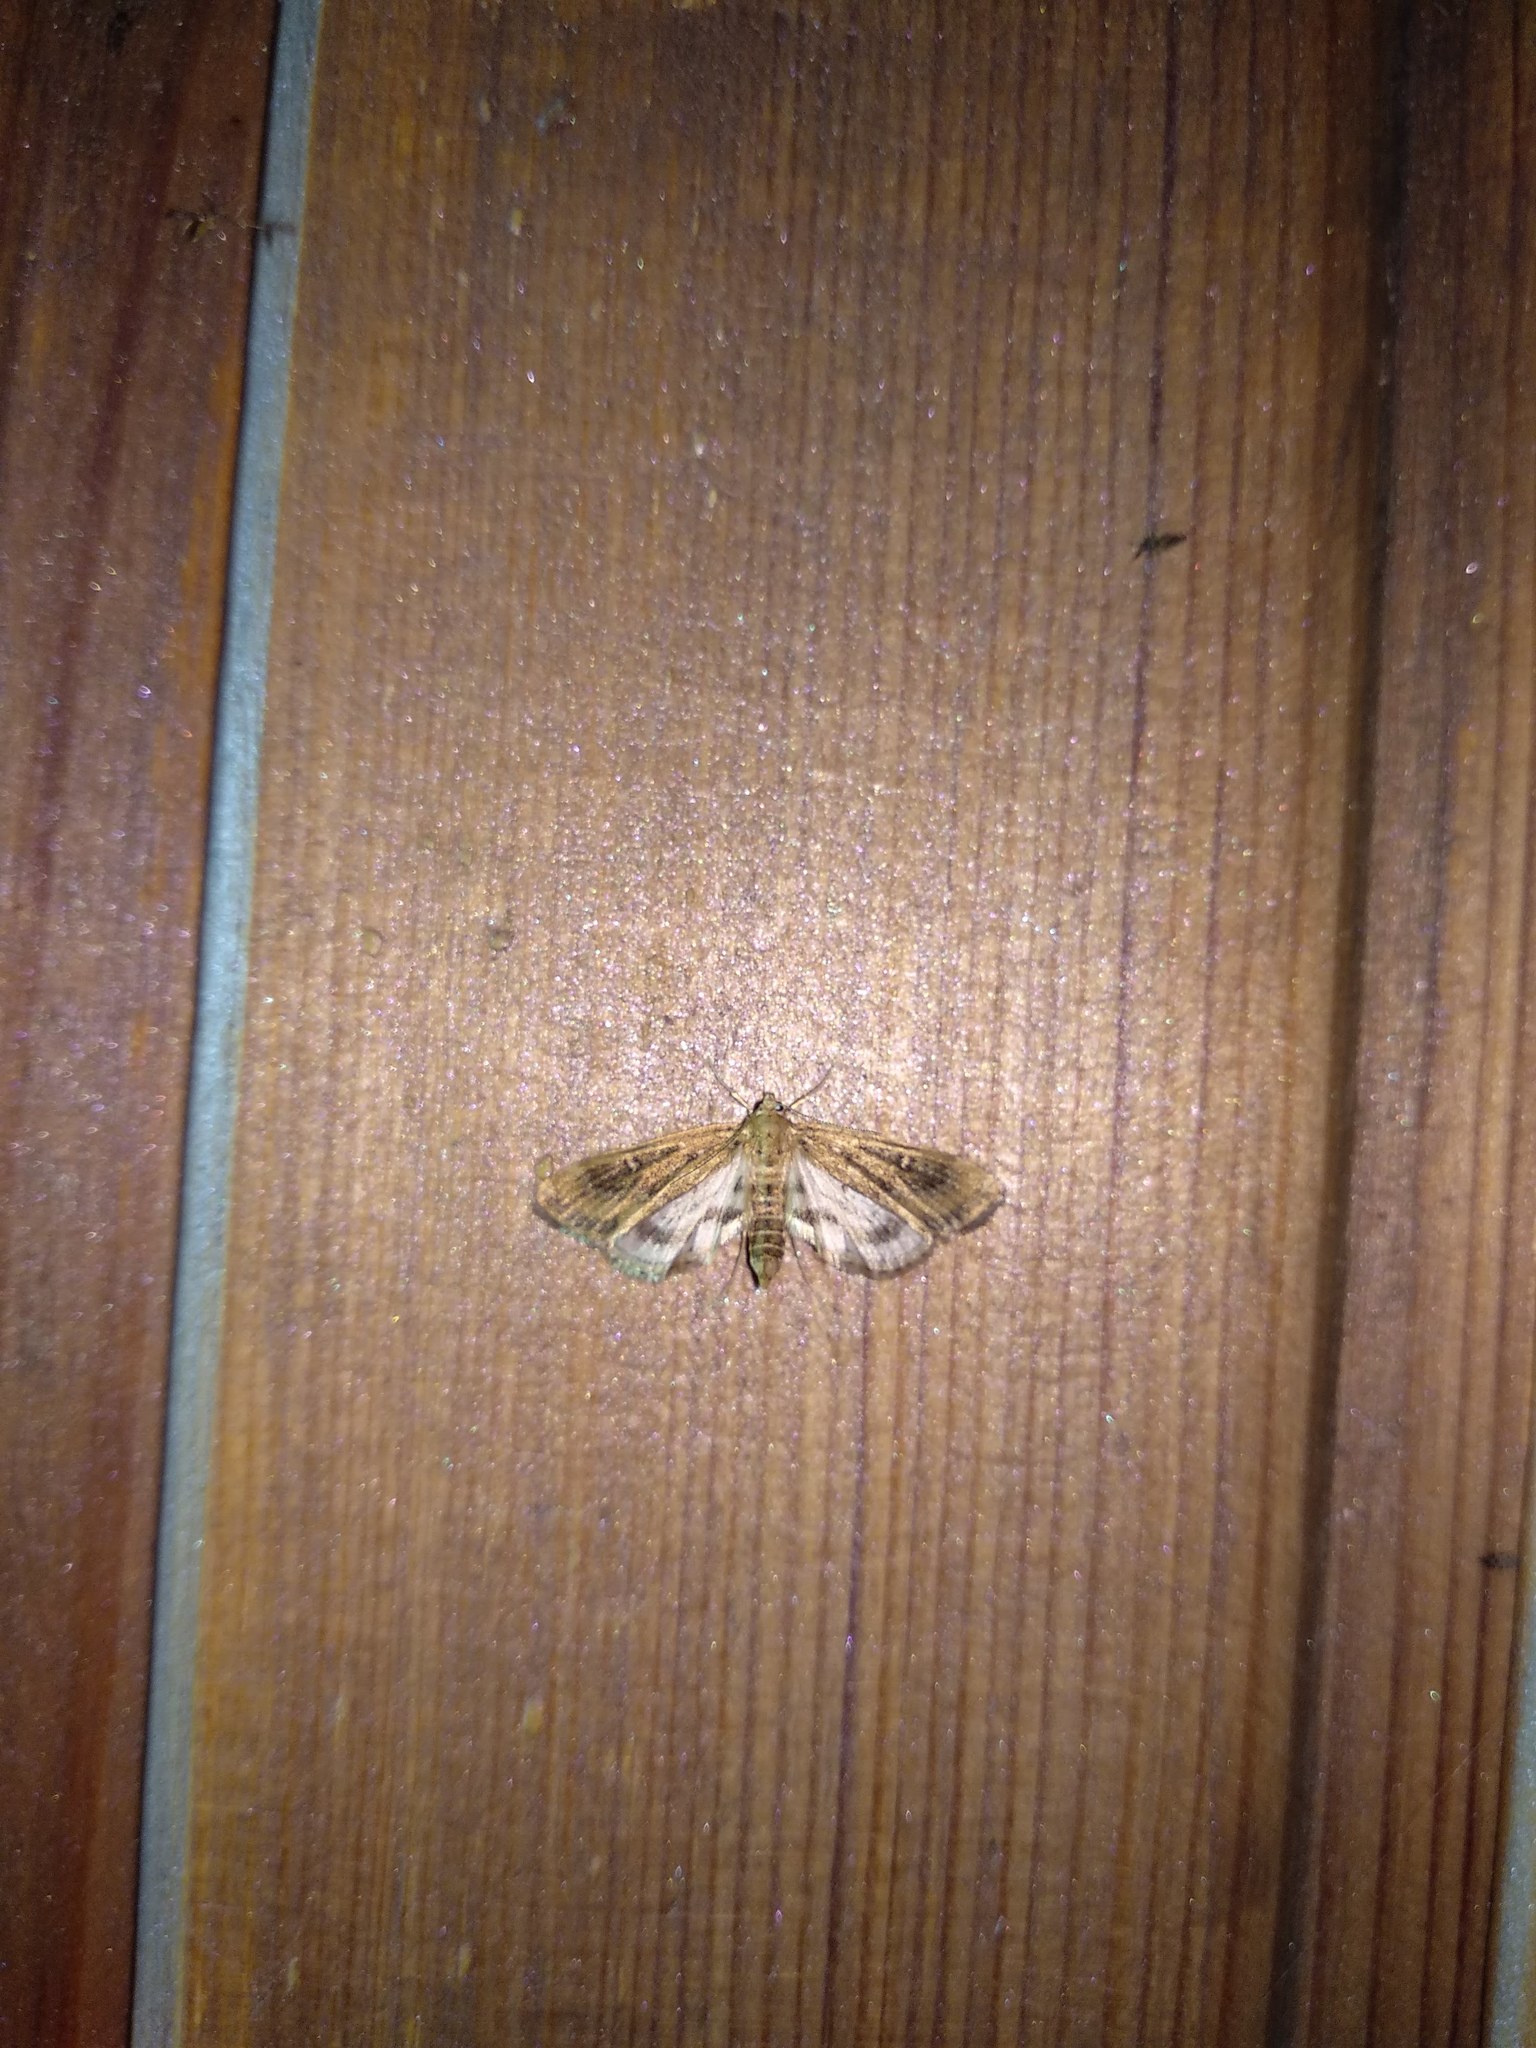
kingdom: Animalia
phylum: Arthropoda
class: Insecta
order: Lepidoptera
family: Crambidae
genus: Parapoynx
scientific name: Parapoynx stratiotata
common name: Ringed china-mark
